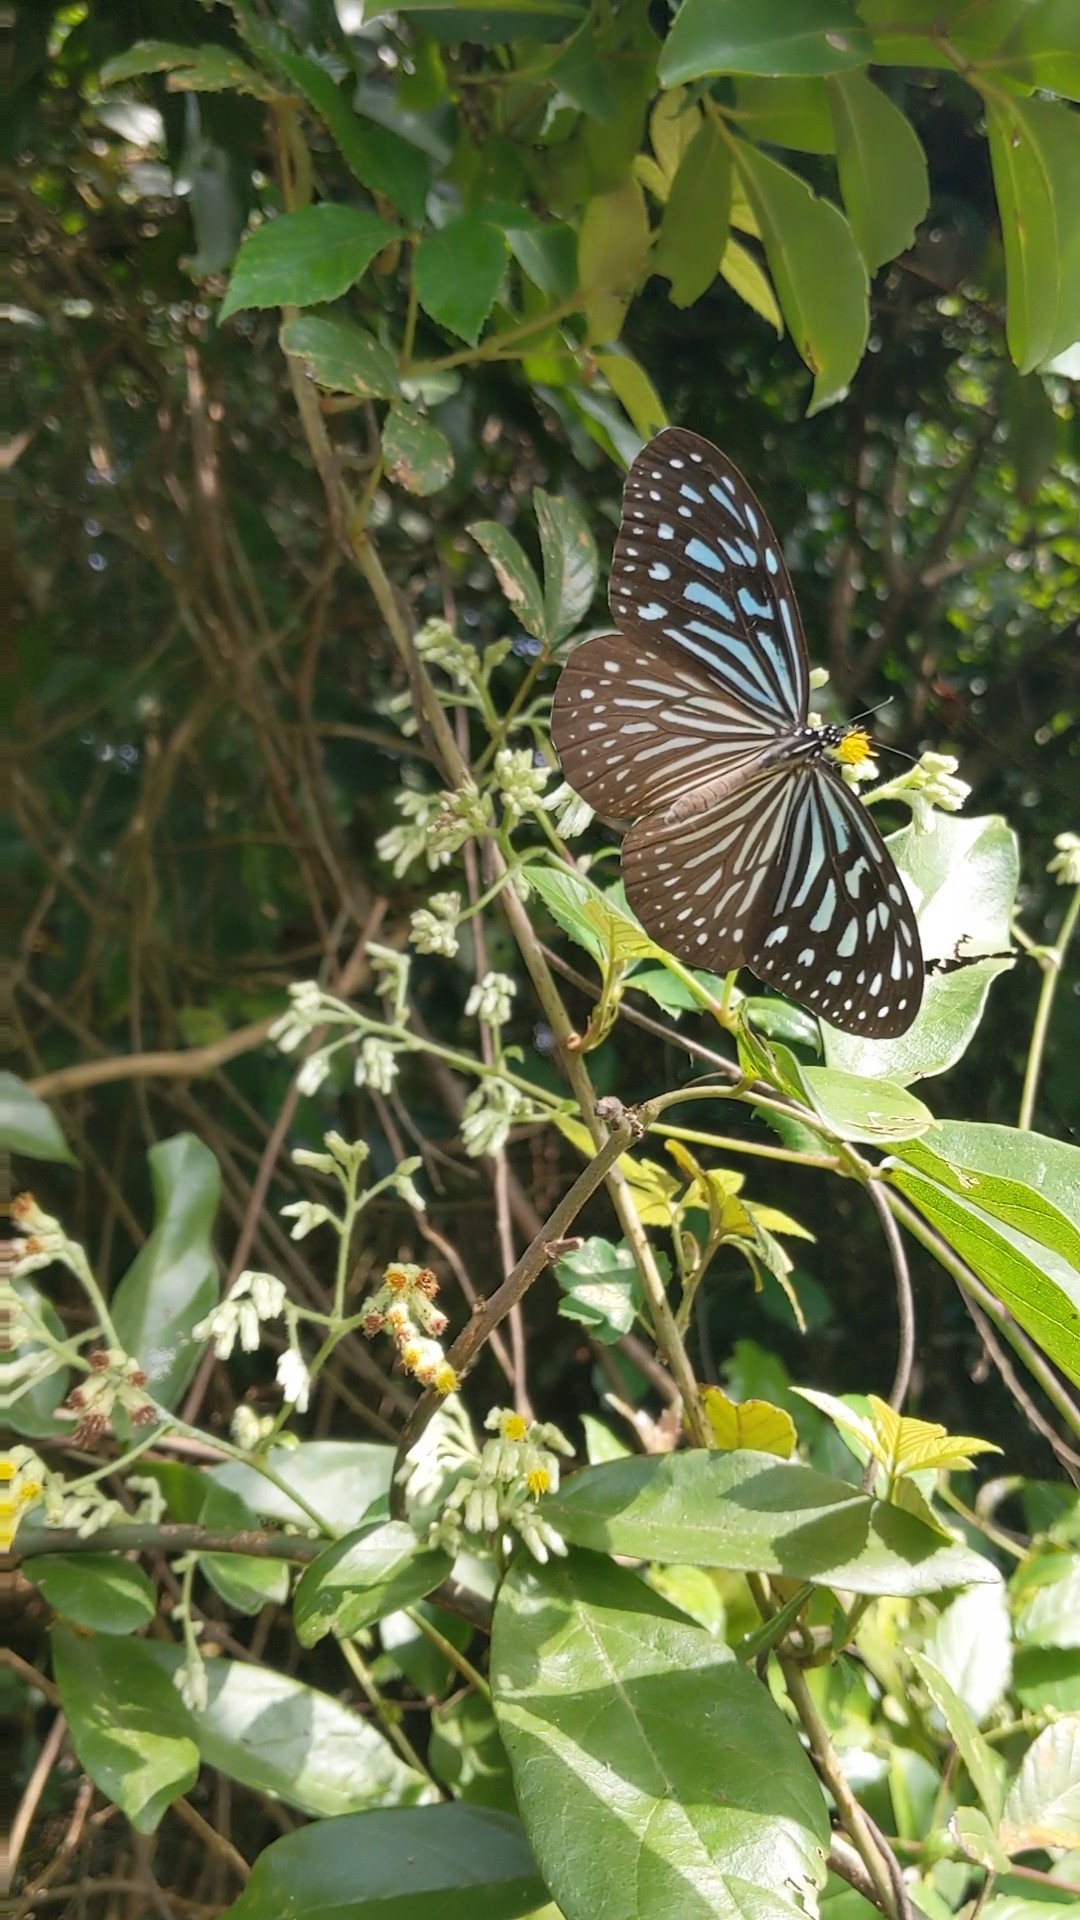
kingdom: Animalia
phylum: Arthropoda
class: Insecta
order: Lepidoptera
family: Nymphalidae
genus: Ideopsis
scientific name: Ideopsis vulgaris
